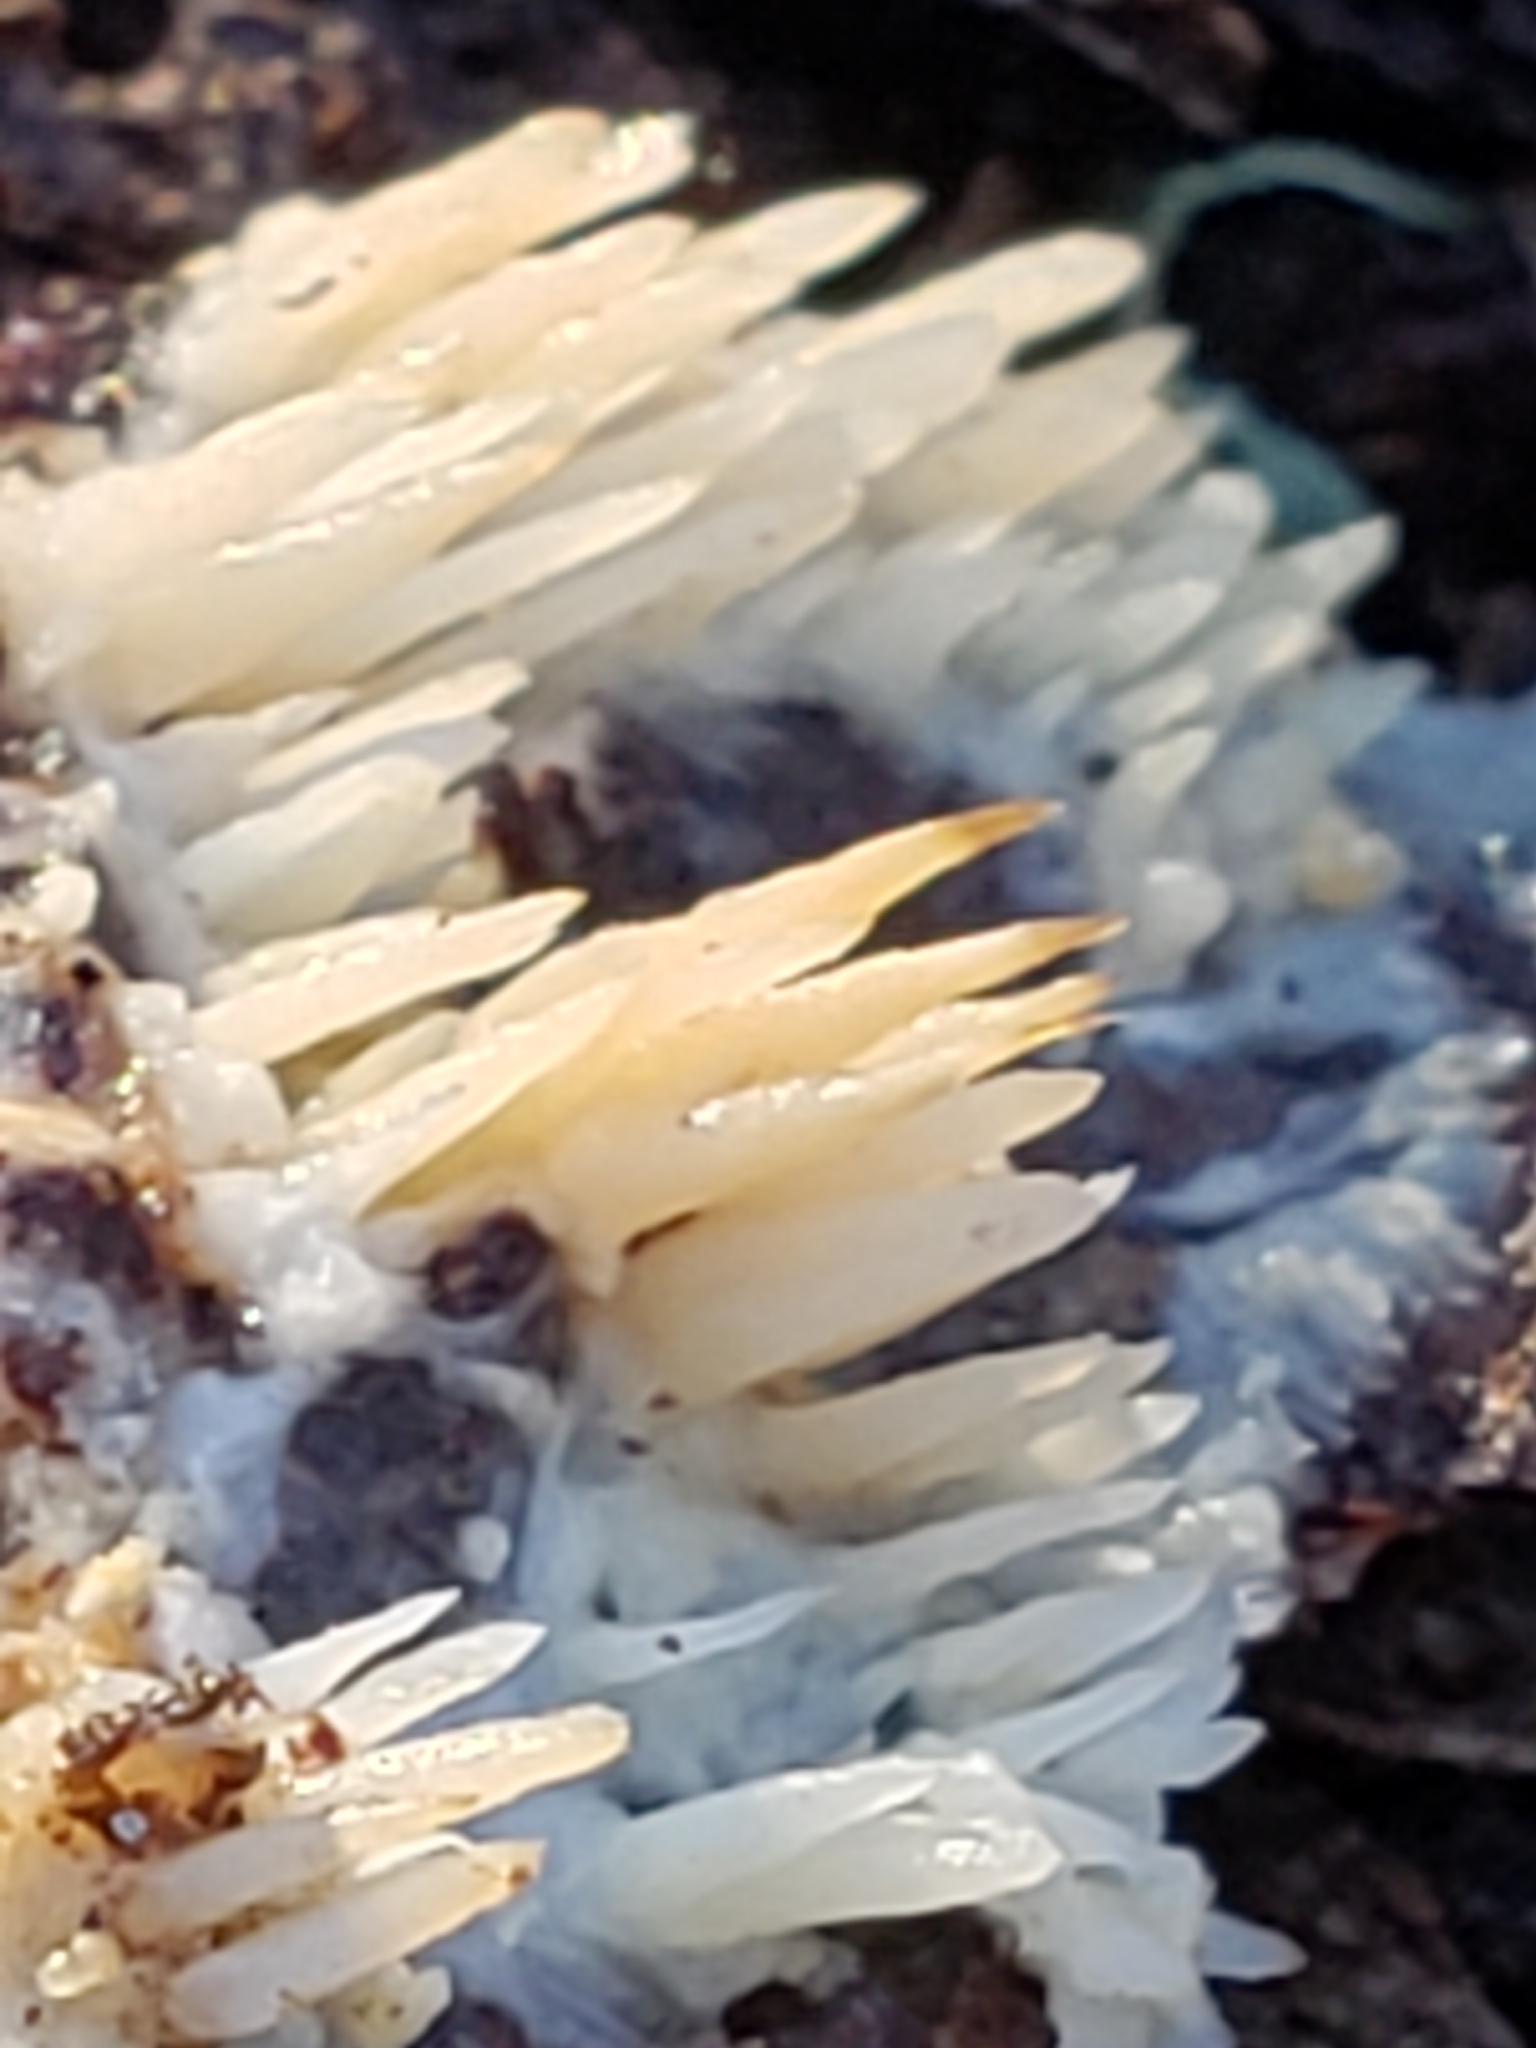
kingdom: Fungi
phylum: Basidiomycota
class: Agaricomycetes
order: Agaricales
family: Radulomycetaceae
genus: Radulomyces
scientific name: Radulomyces copelandii
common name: Asian beauty
